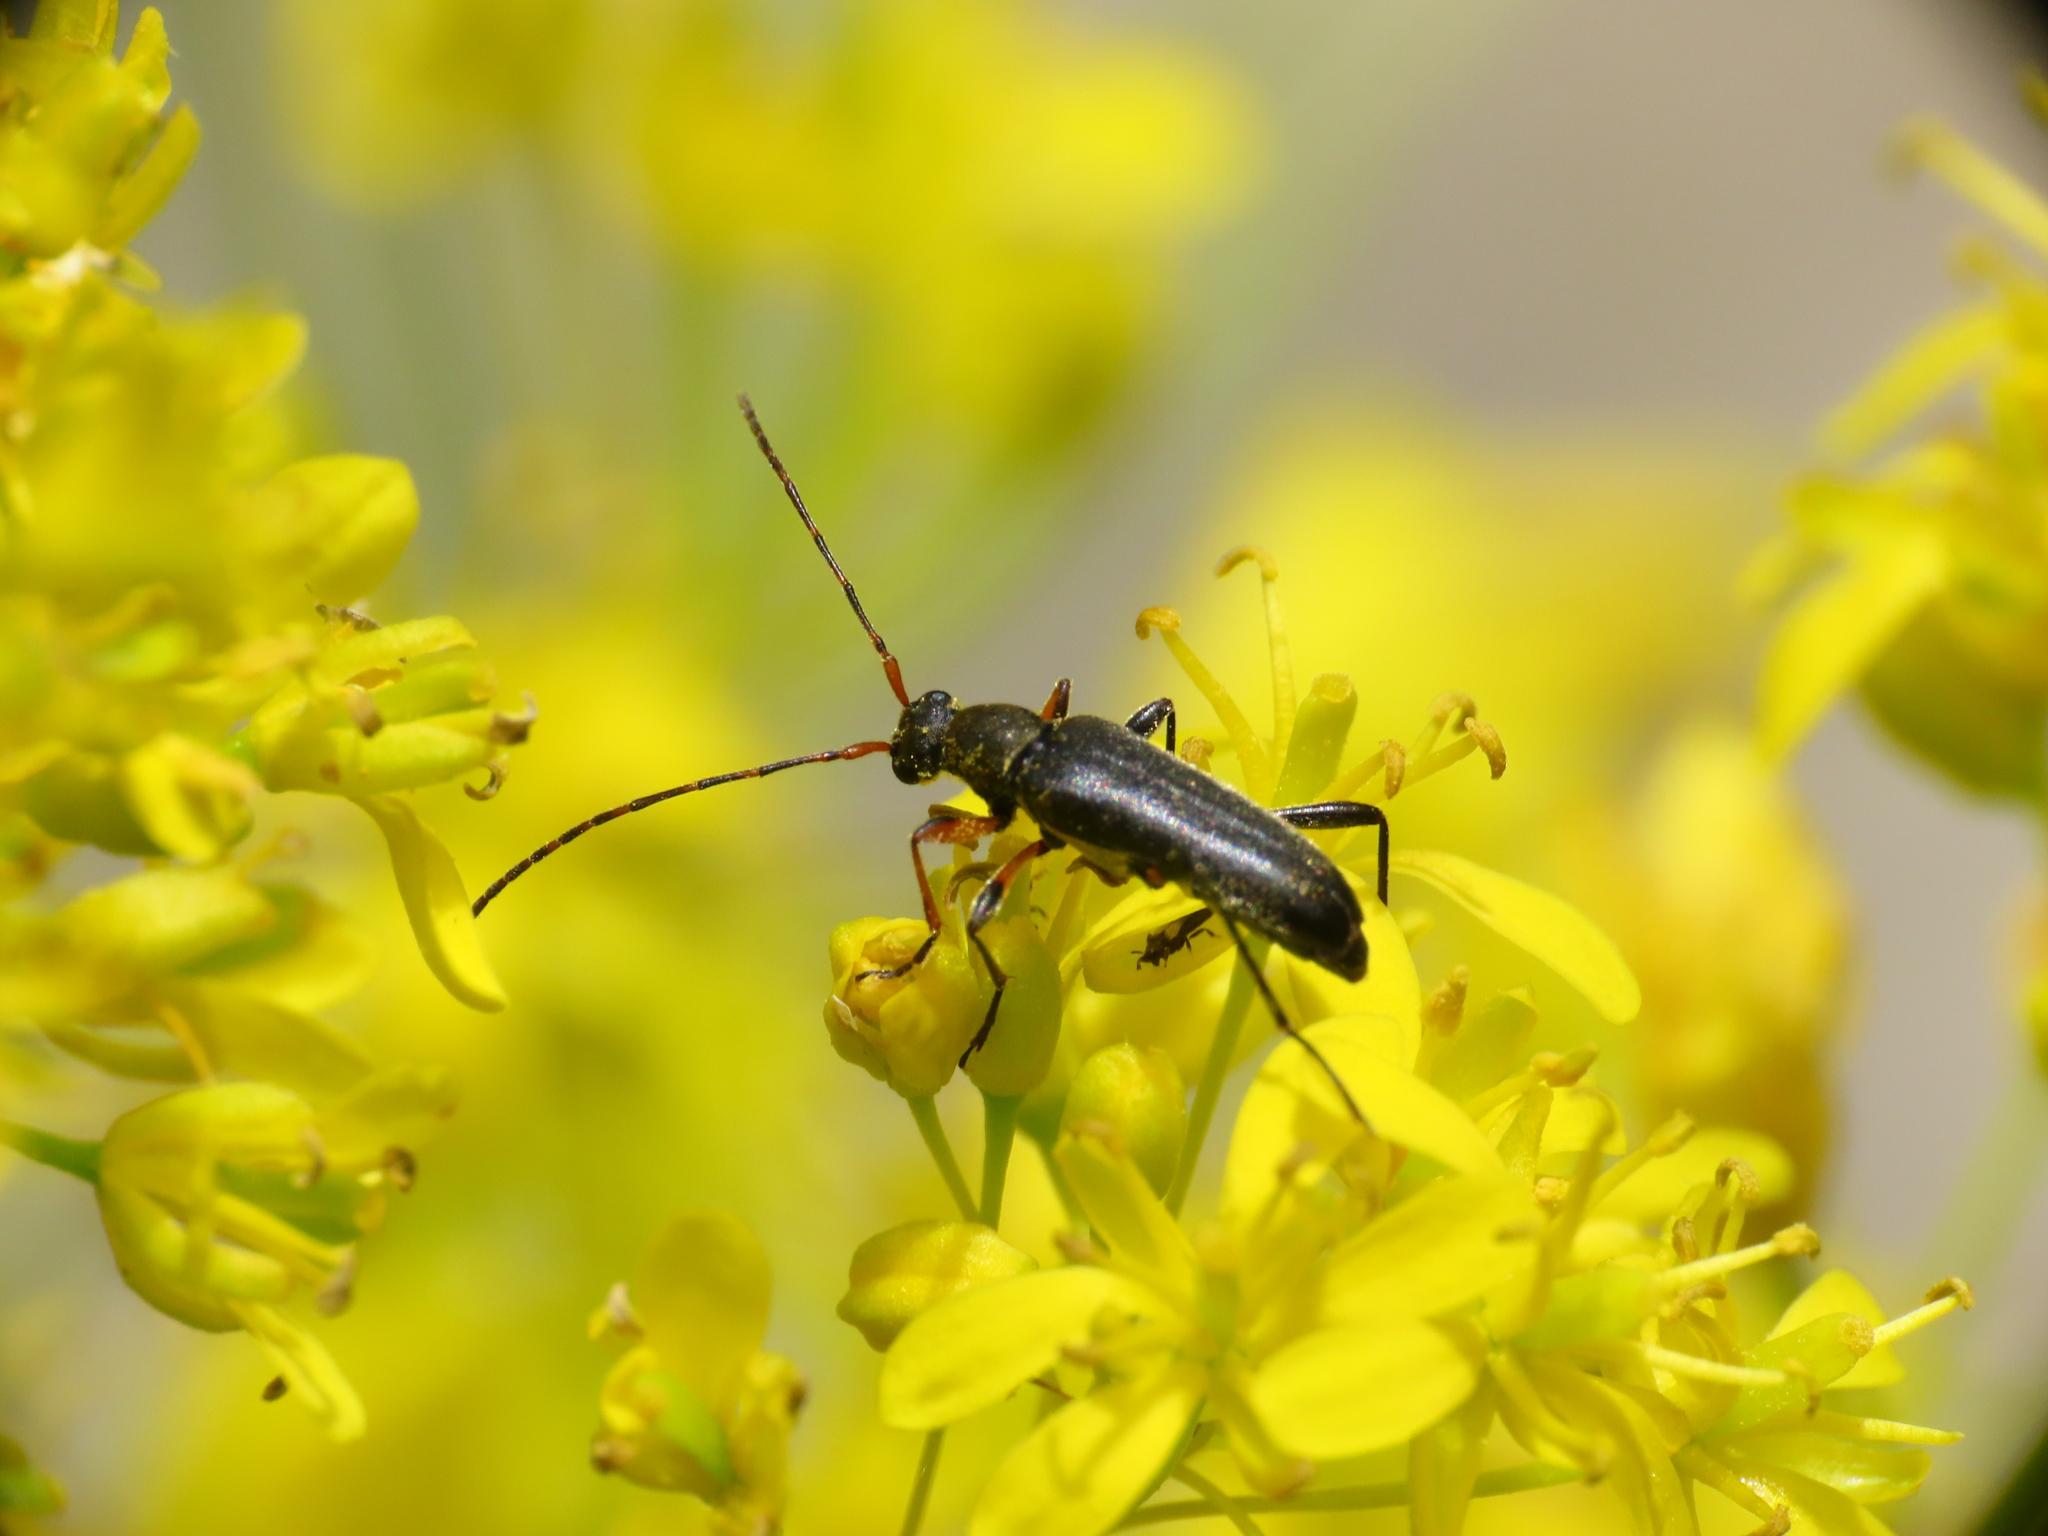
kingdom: Animalia
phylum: Arthropoda
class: Insecta
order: Coleoptera
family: Cerambycidae
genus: Grammoptera
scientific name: Grammoptera ruficornis
